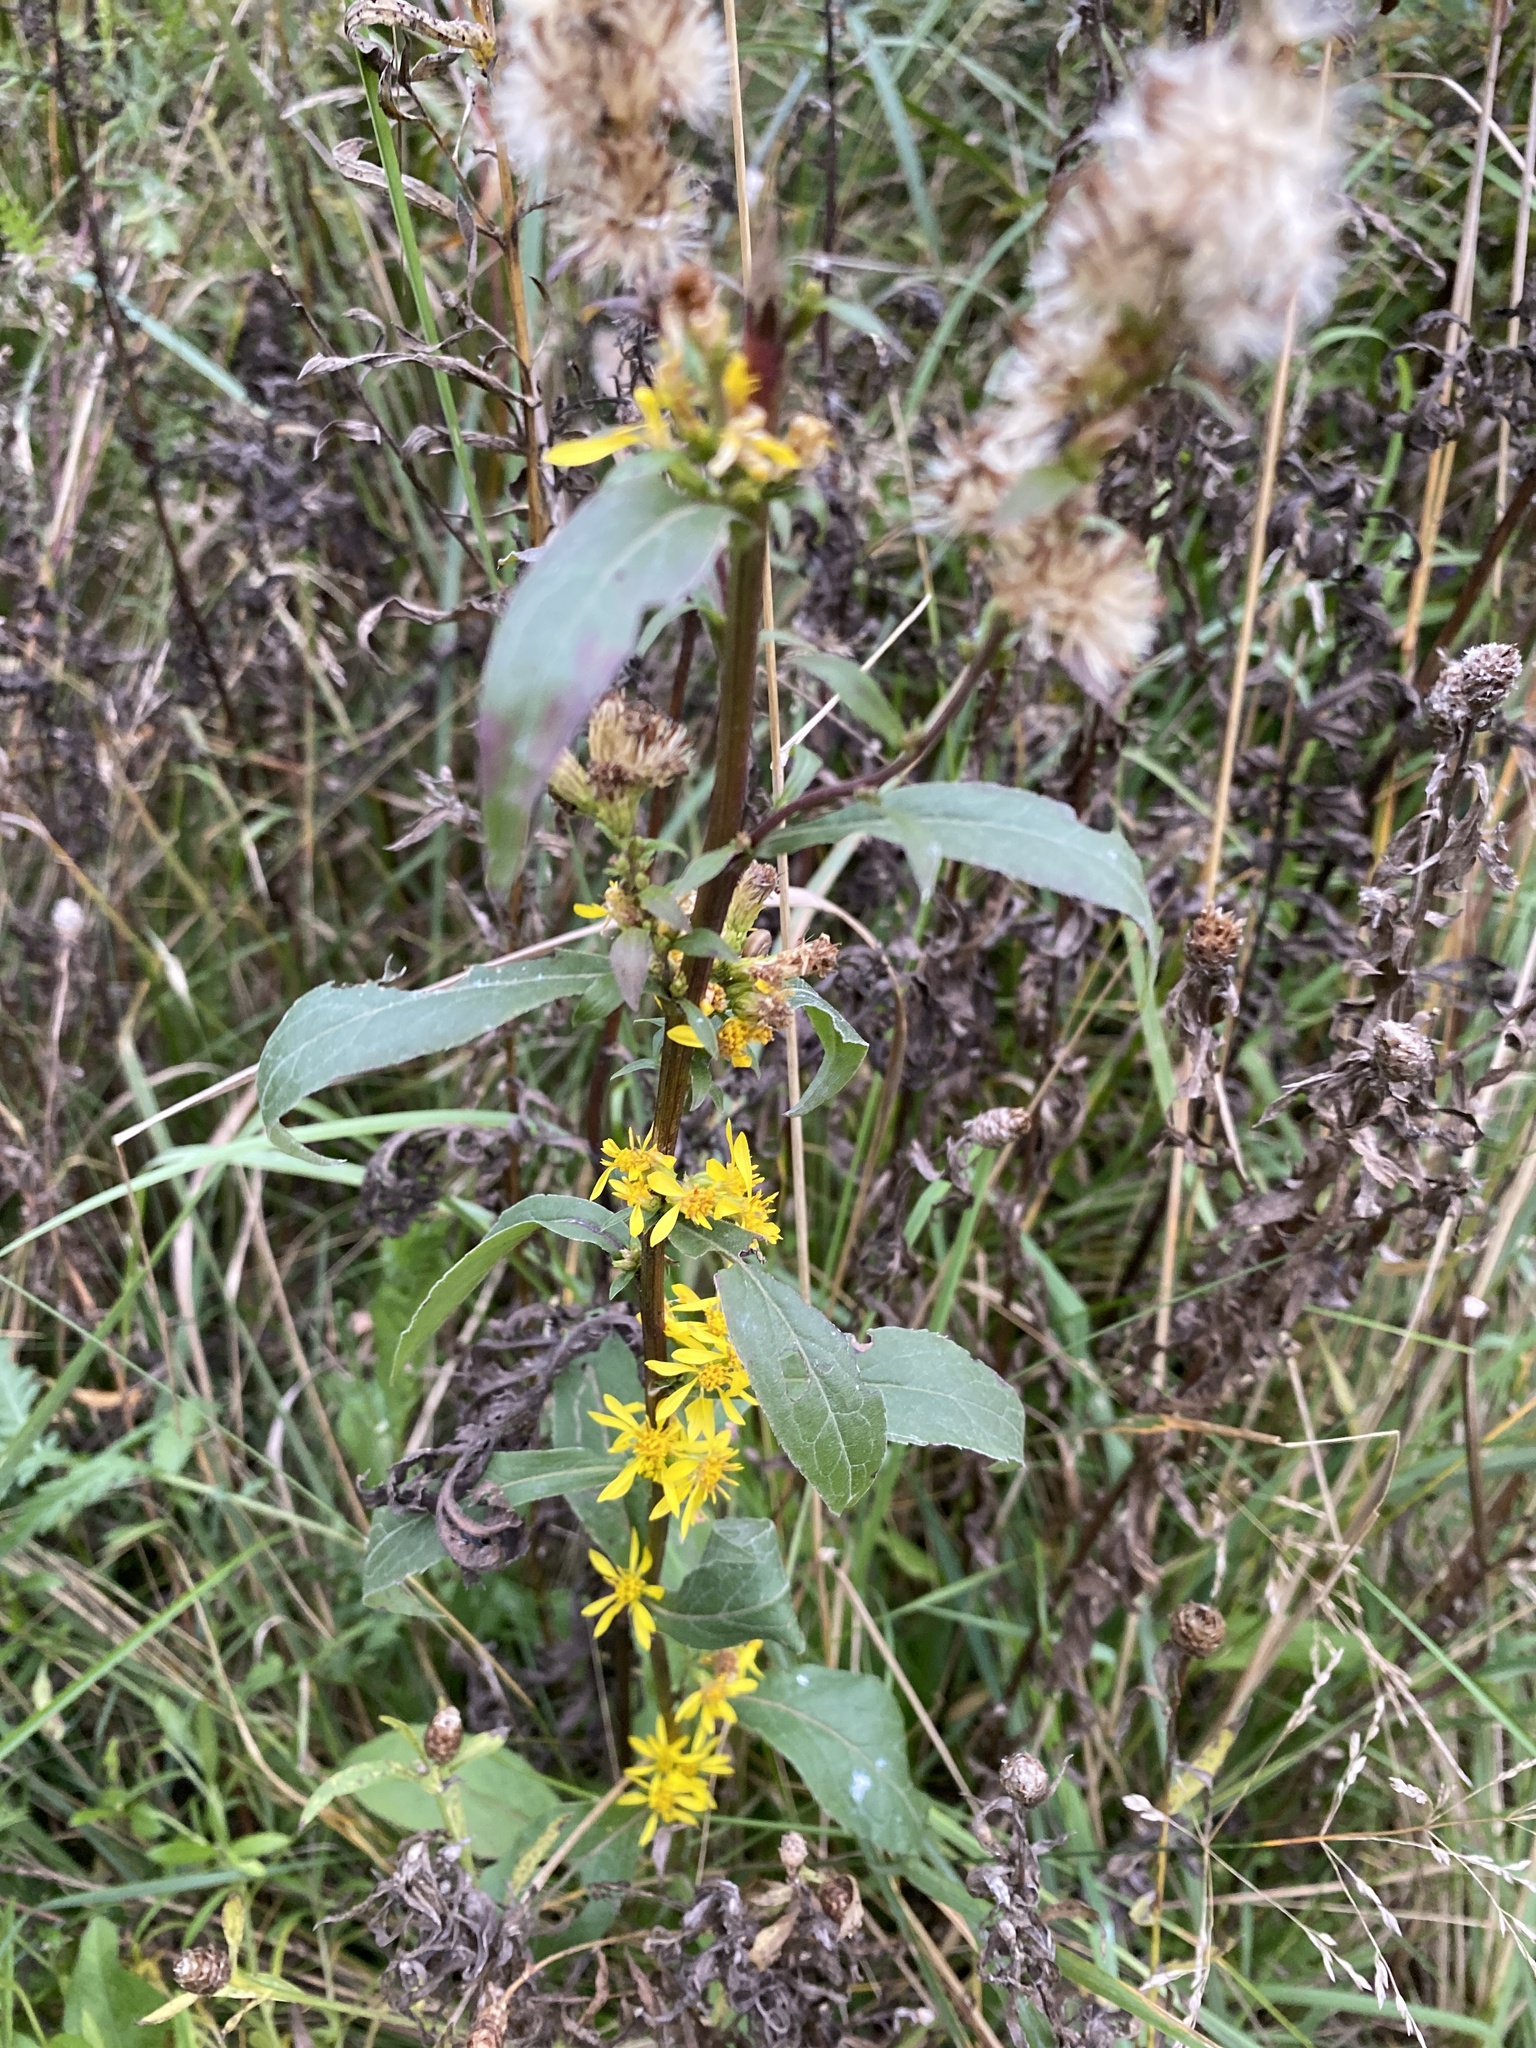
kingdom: Plantae
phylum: Tracheophyta
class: Magnoliopsida
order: Asterales
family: Asteraceae
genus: Solidago
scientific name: Solidago virgaurea
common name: Goldenrod
